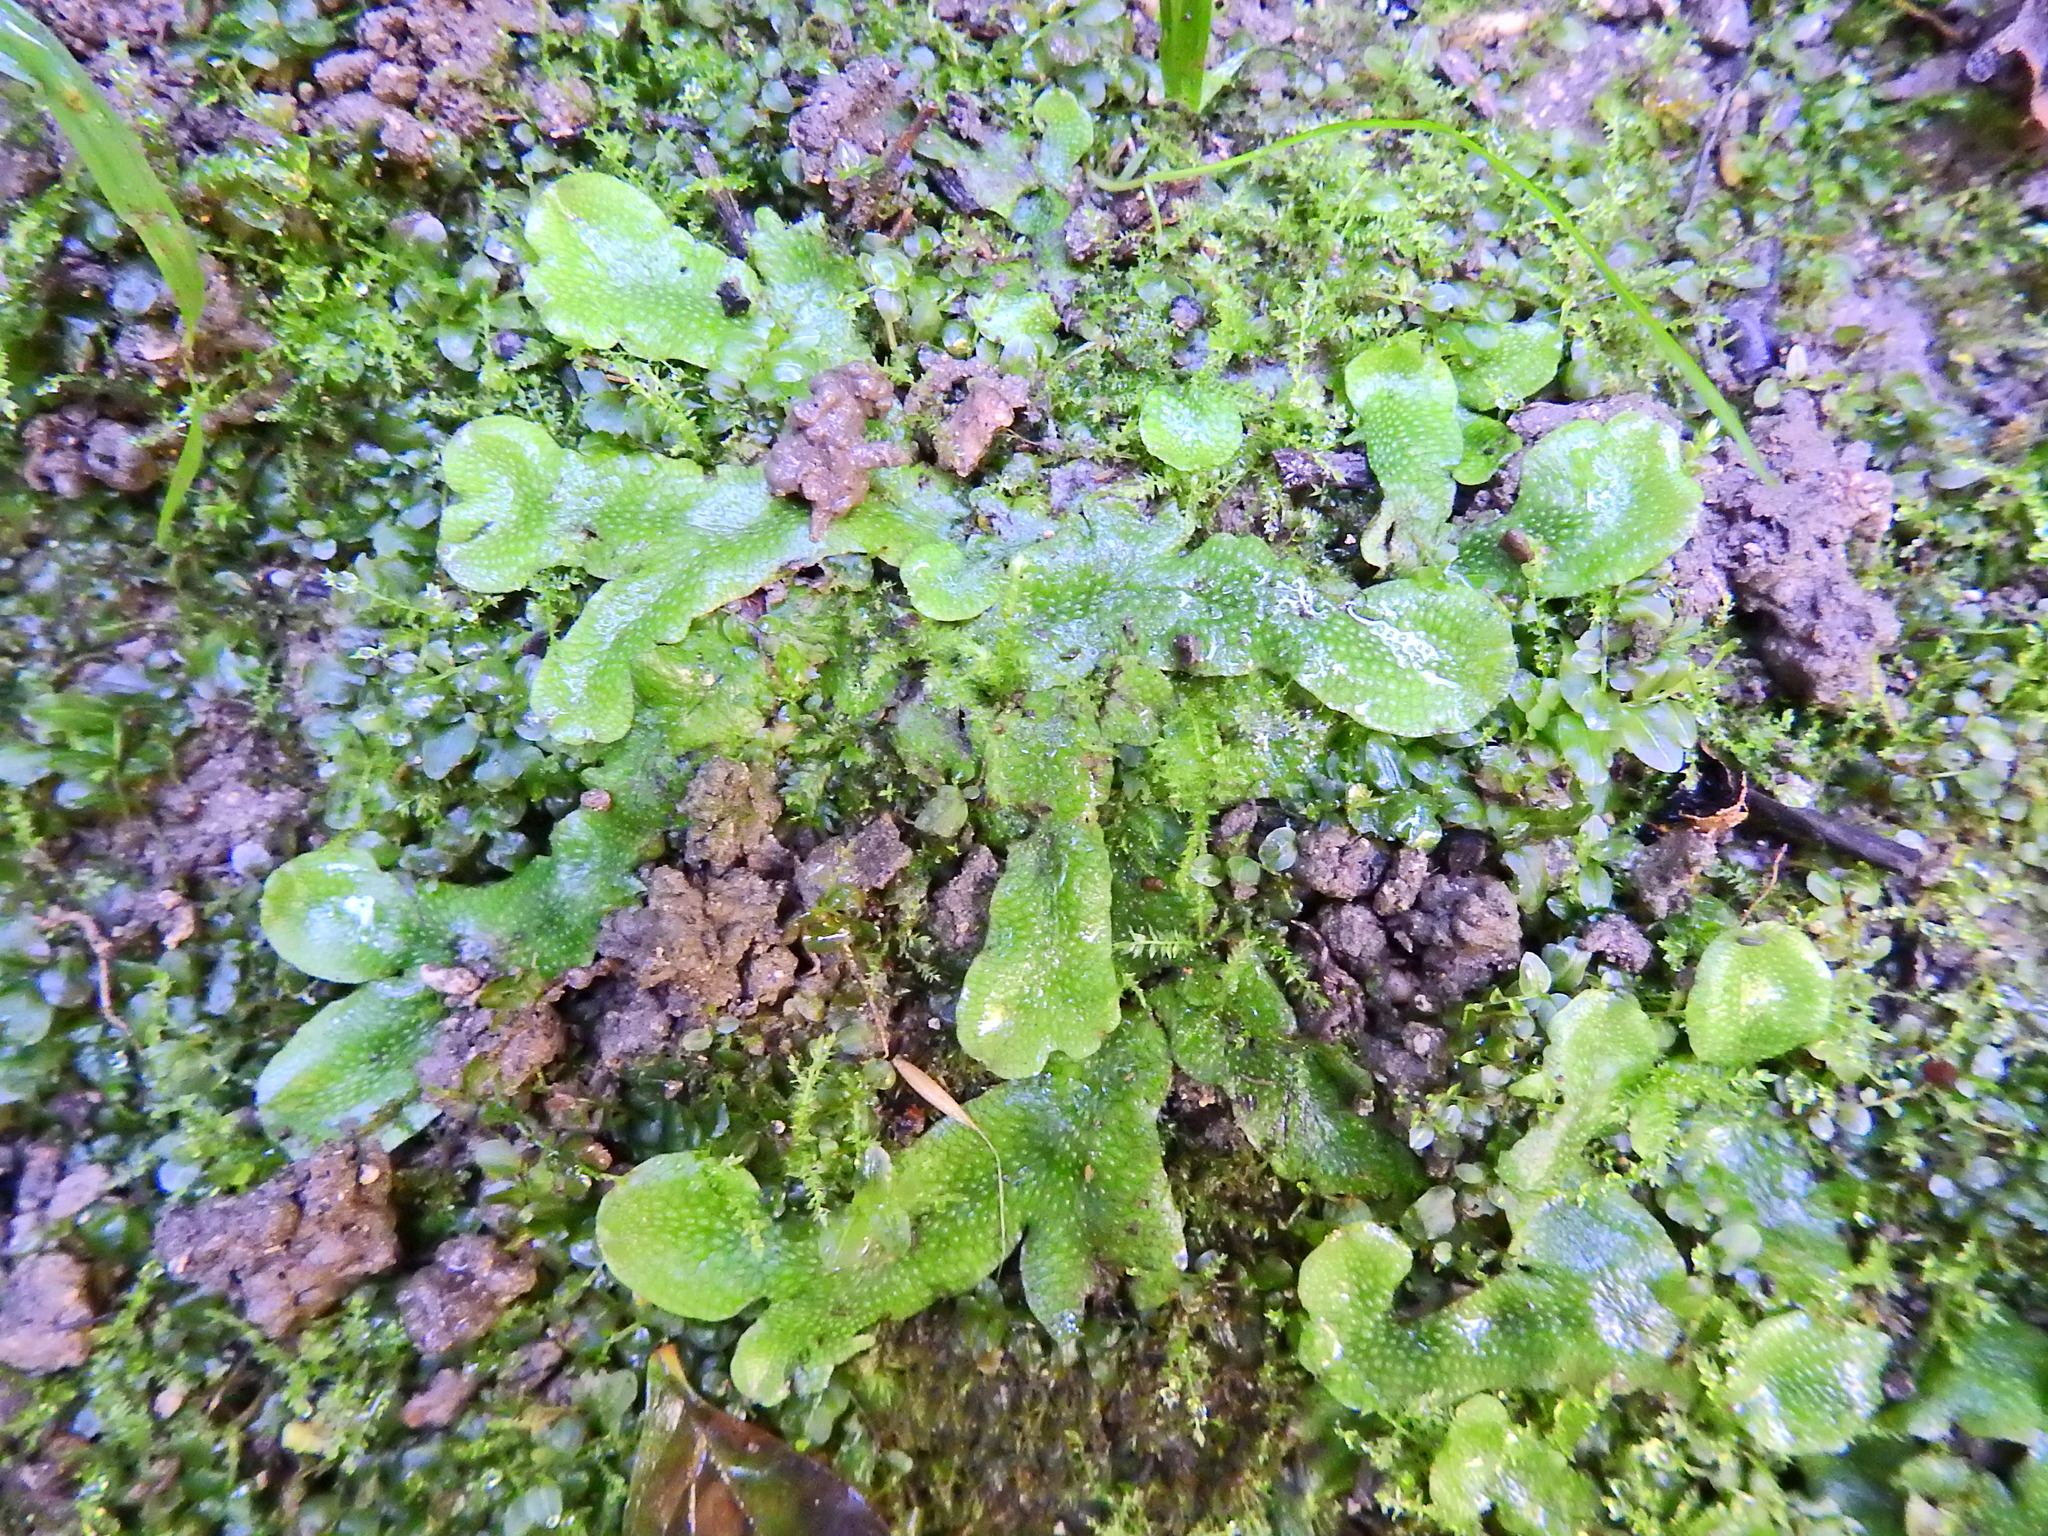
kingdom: Plantae
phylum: Marchantiophyta
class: Marchantiopsida
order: Marchantiales
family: Conocephalaceae
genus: Conocephalum
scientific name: Conocephalum conicum
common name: Great scented liverwort
